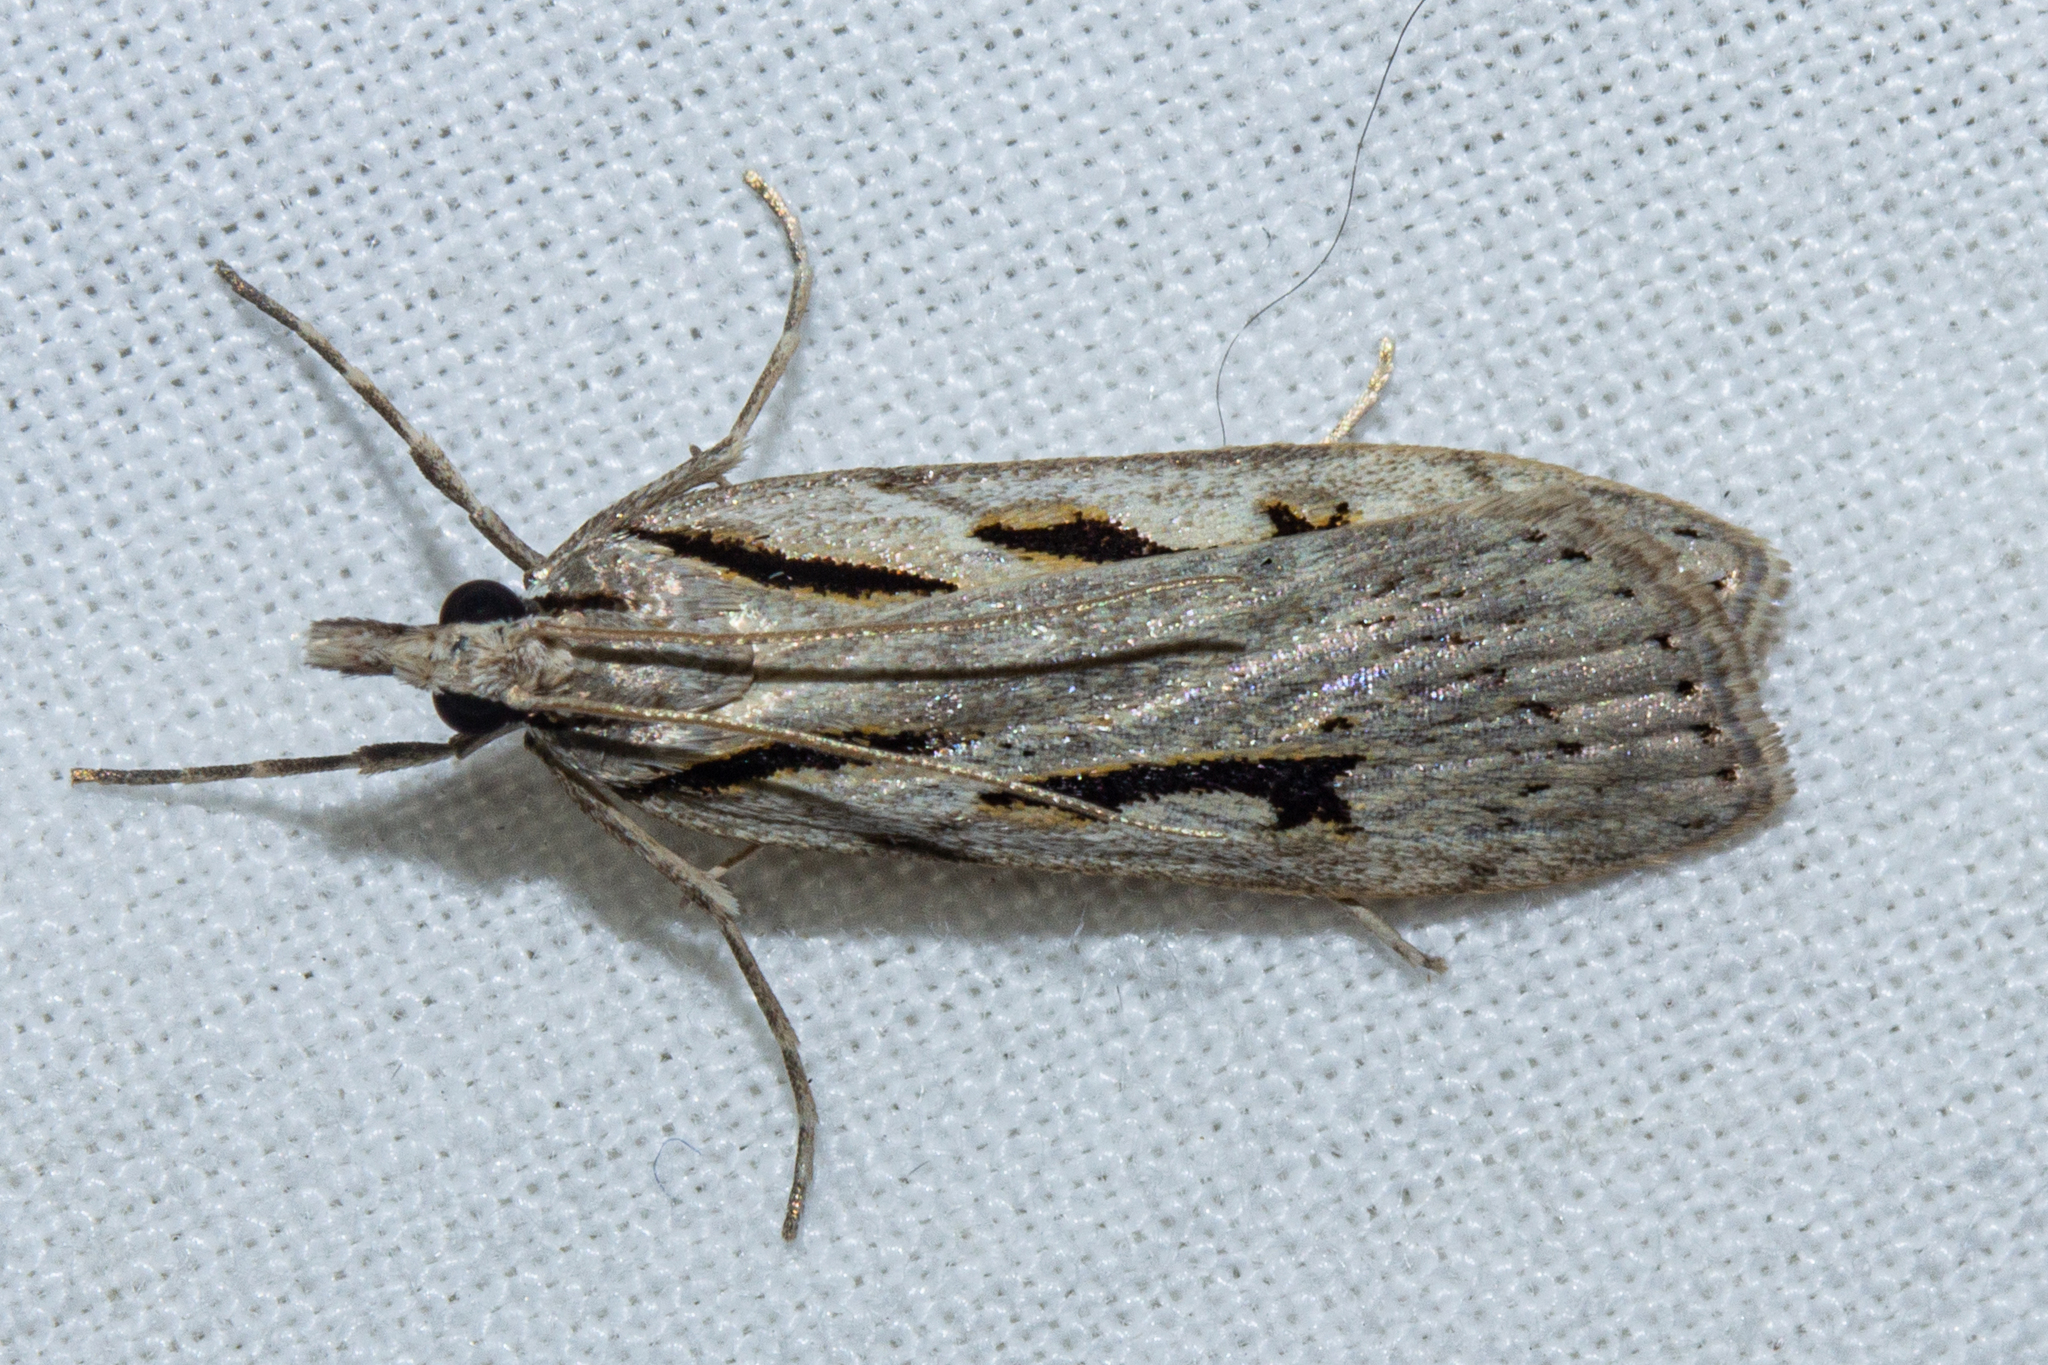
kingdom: Animalia
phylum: Arthropoda
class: Insecta
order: Lepidoptera
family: Crambidae
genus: Scoparia
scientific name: Scoparia rotuellus
